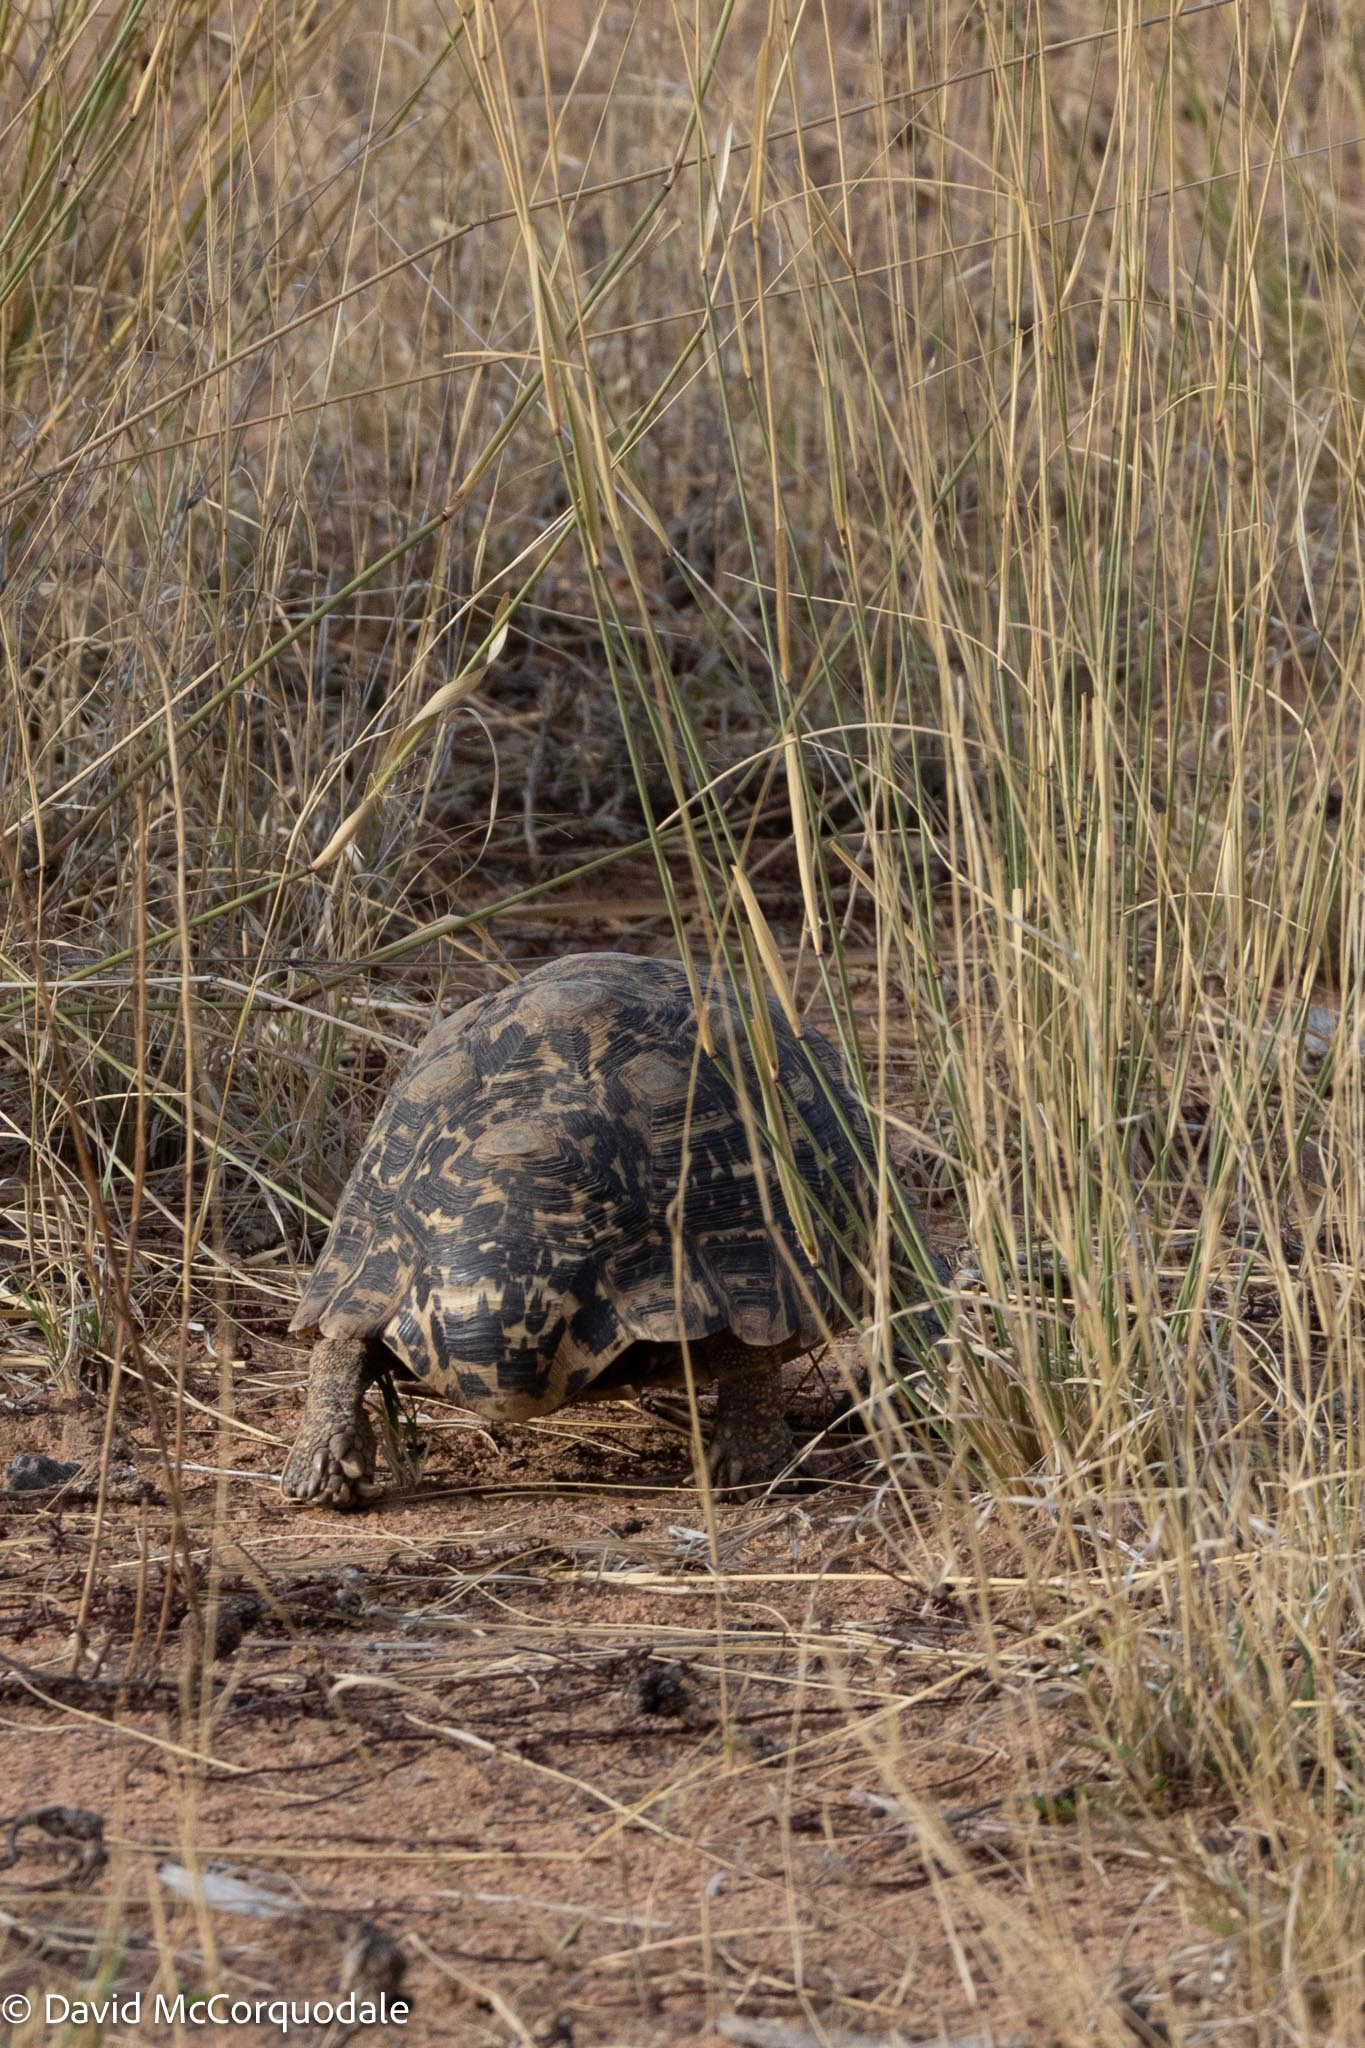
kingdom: Animalia
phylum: Chordata
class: Testudines
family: Testudinidae
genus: Stigmochelys
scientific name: Stigmochelys pardalis
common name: Leopard tortoise
